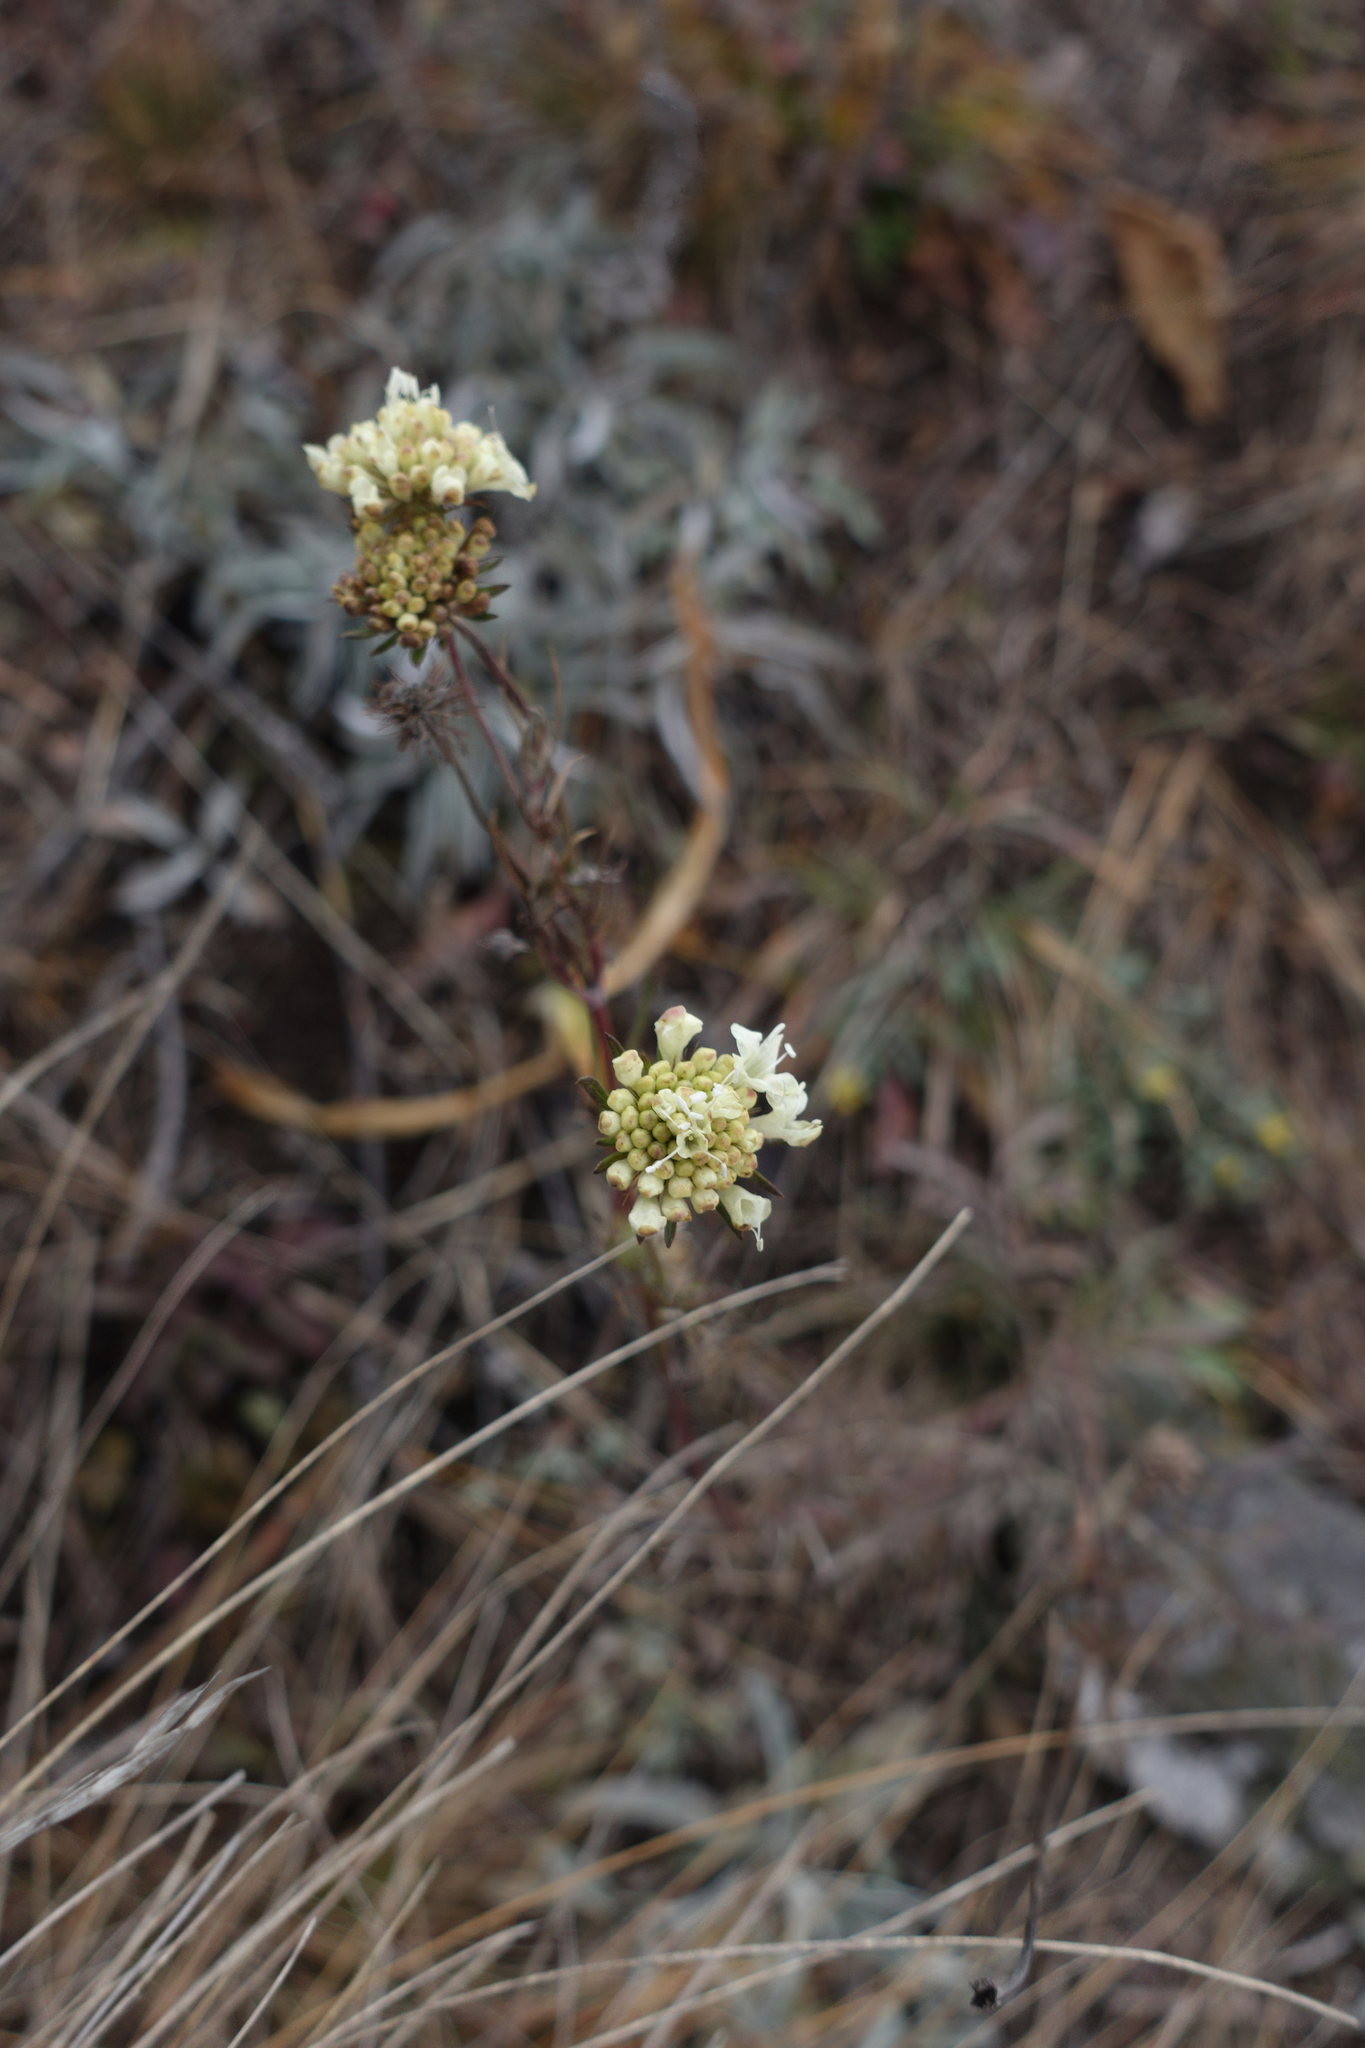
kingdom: Plantae
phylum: Tracheophyta
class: Magnoliopsida
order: Dipsacales
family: Caprifoliaceae
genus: Scabiosa
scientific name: Scabiosa ochroleuca
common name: Cream pincushions
